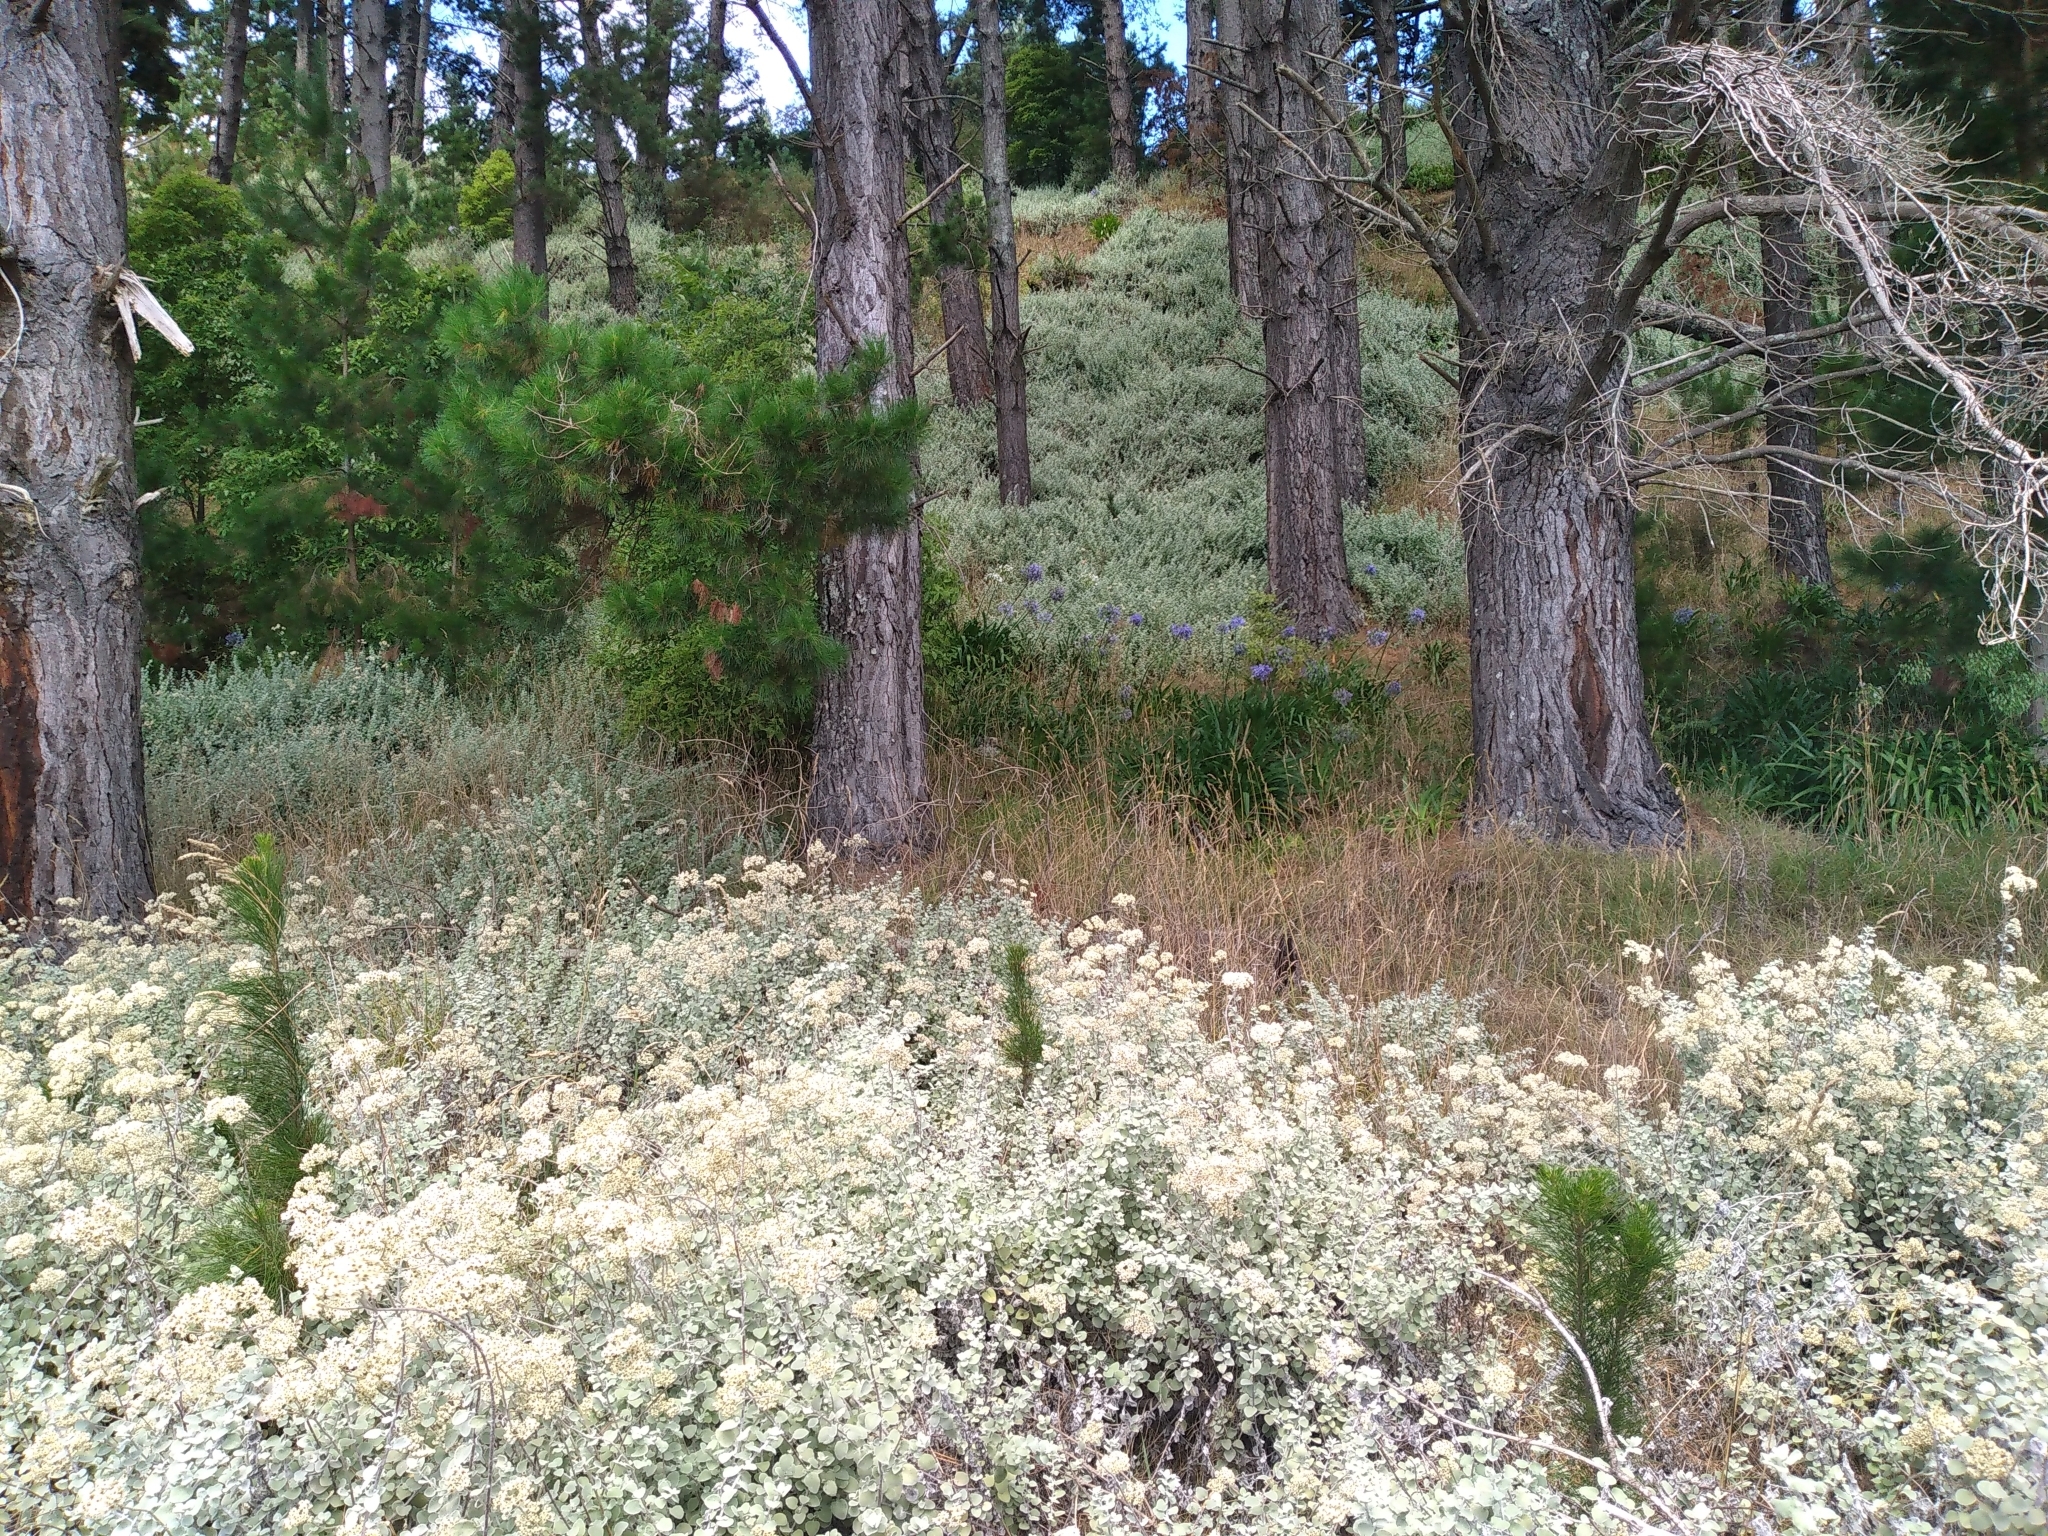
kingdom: Plantae
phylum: Tracheophyta
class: Magnoliopsida
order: Asterales
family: Asteraceae
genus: Helichrysum
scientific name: Helichrysum petiolare
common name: Licorice-plant
